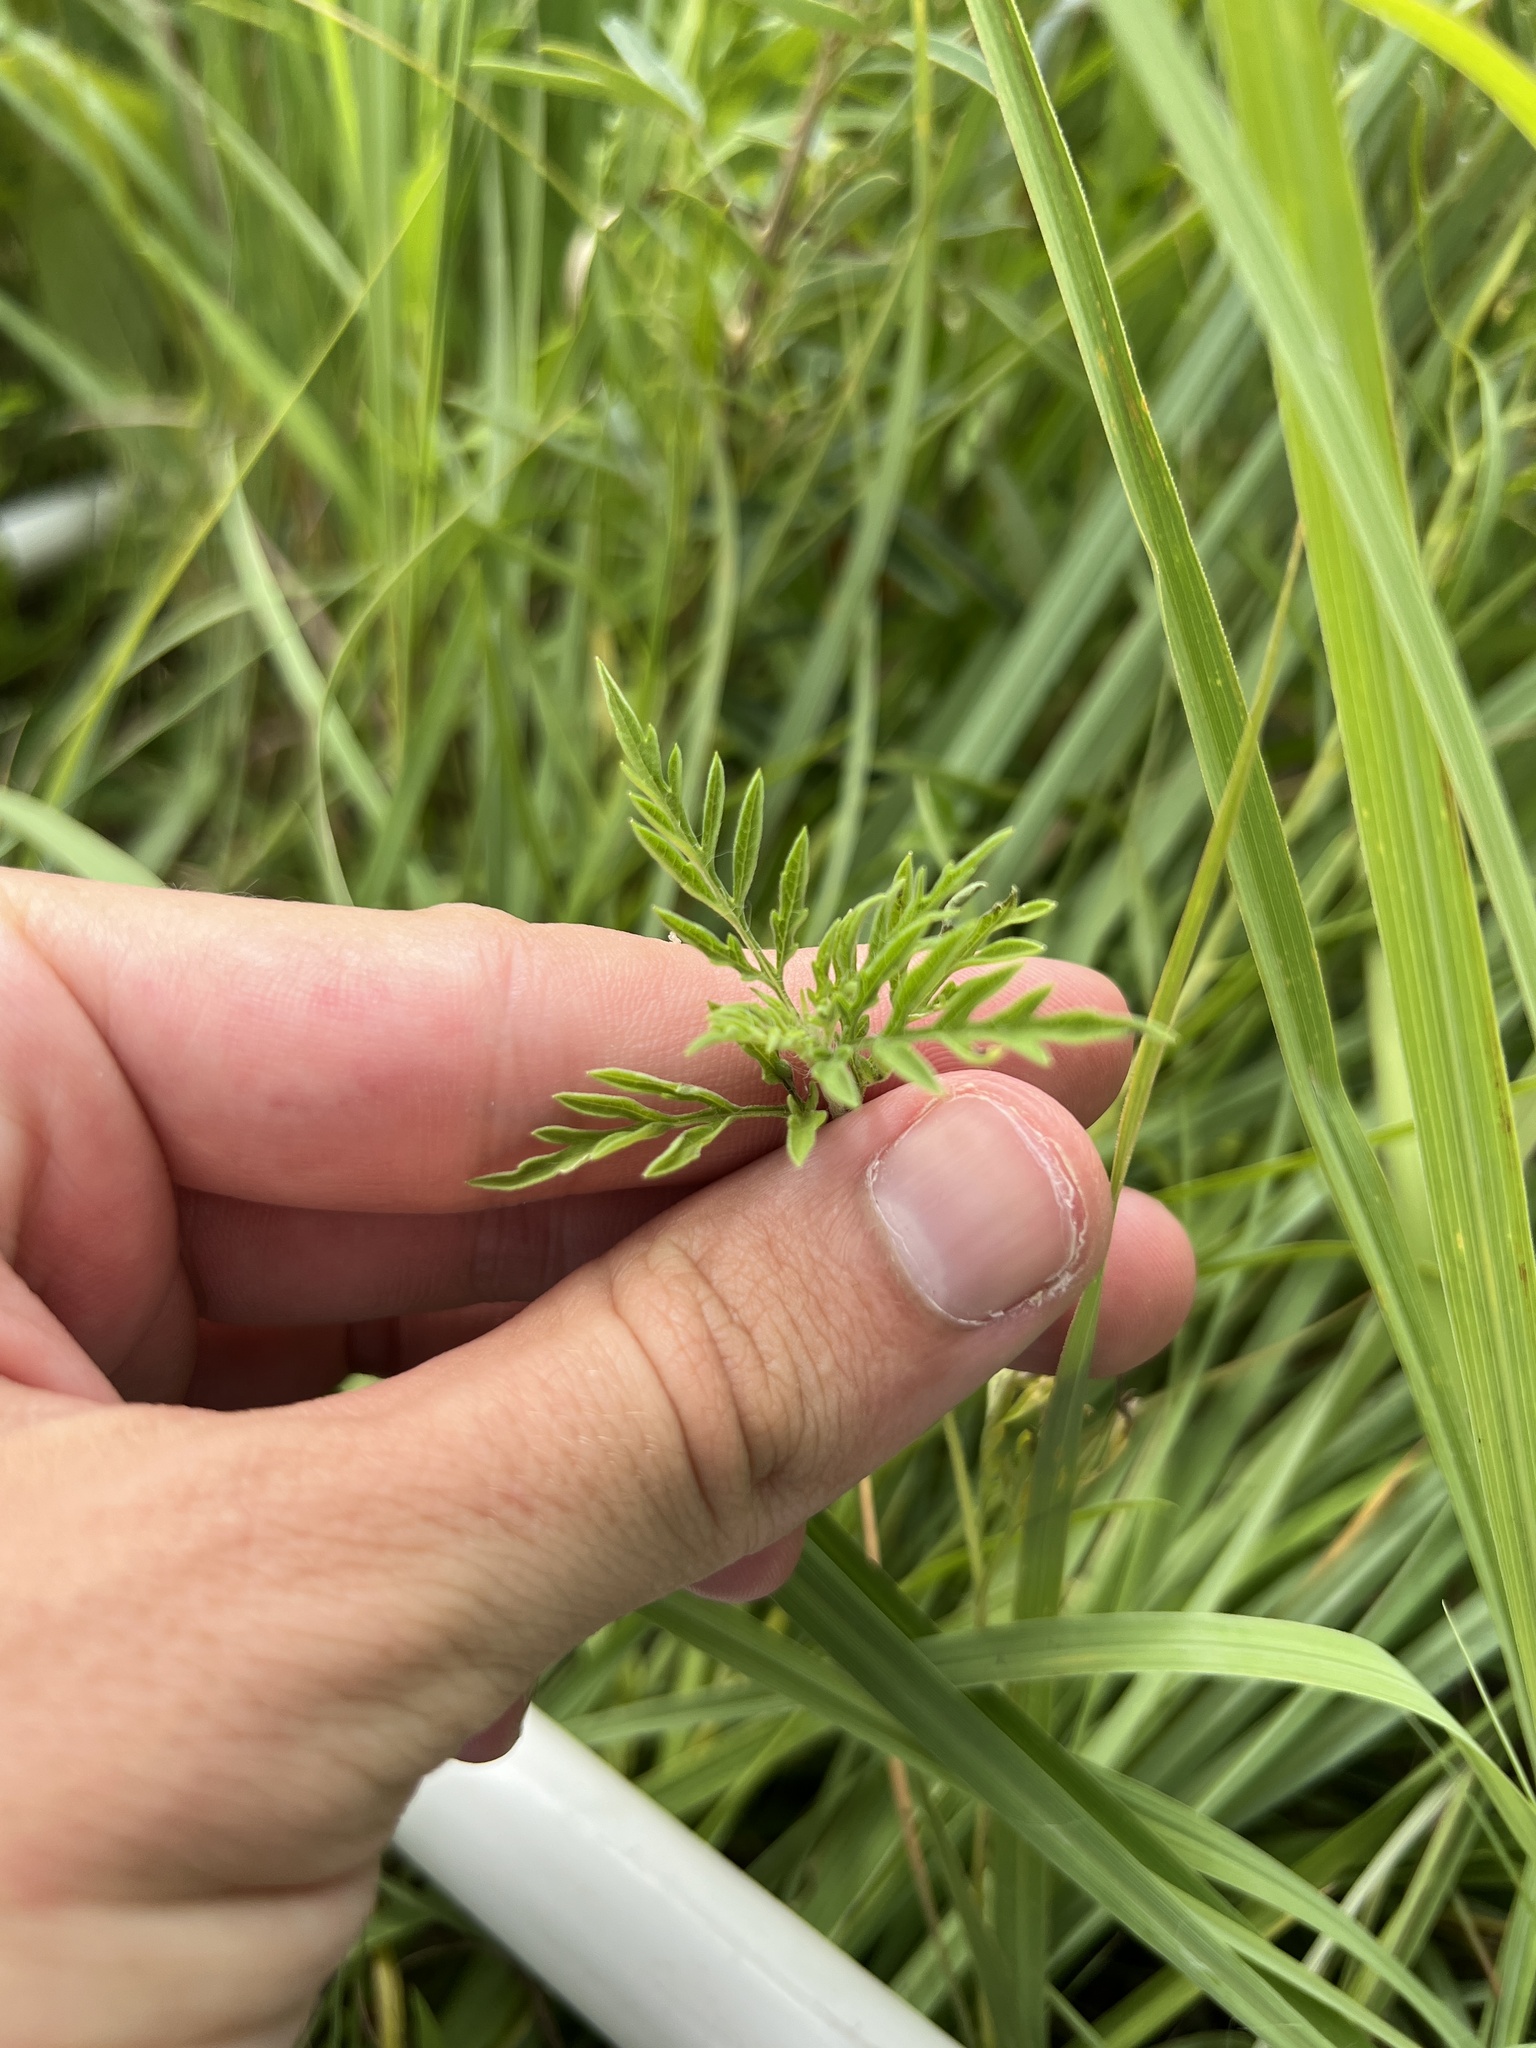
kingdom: Plantae
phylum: Tracheophyta
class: Magnoliopsida
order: Asterales
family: Asteraceae
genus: Ambrosia
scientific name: Ambrosia artemisiifolia
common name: Annual ragweed
